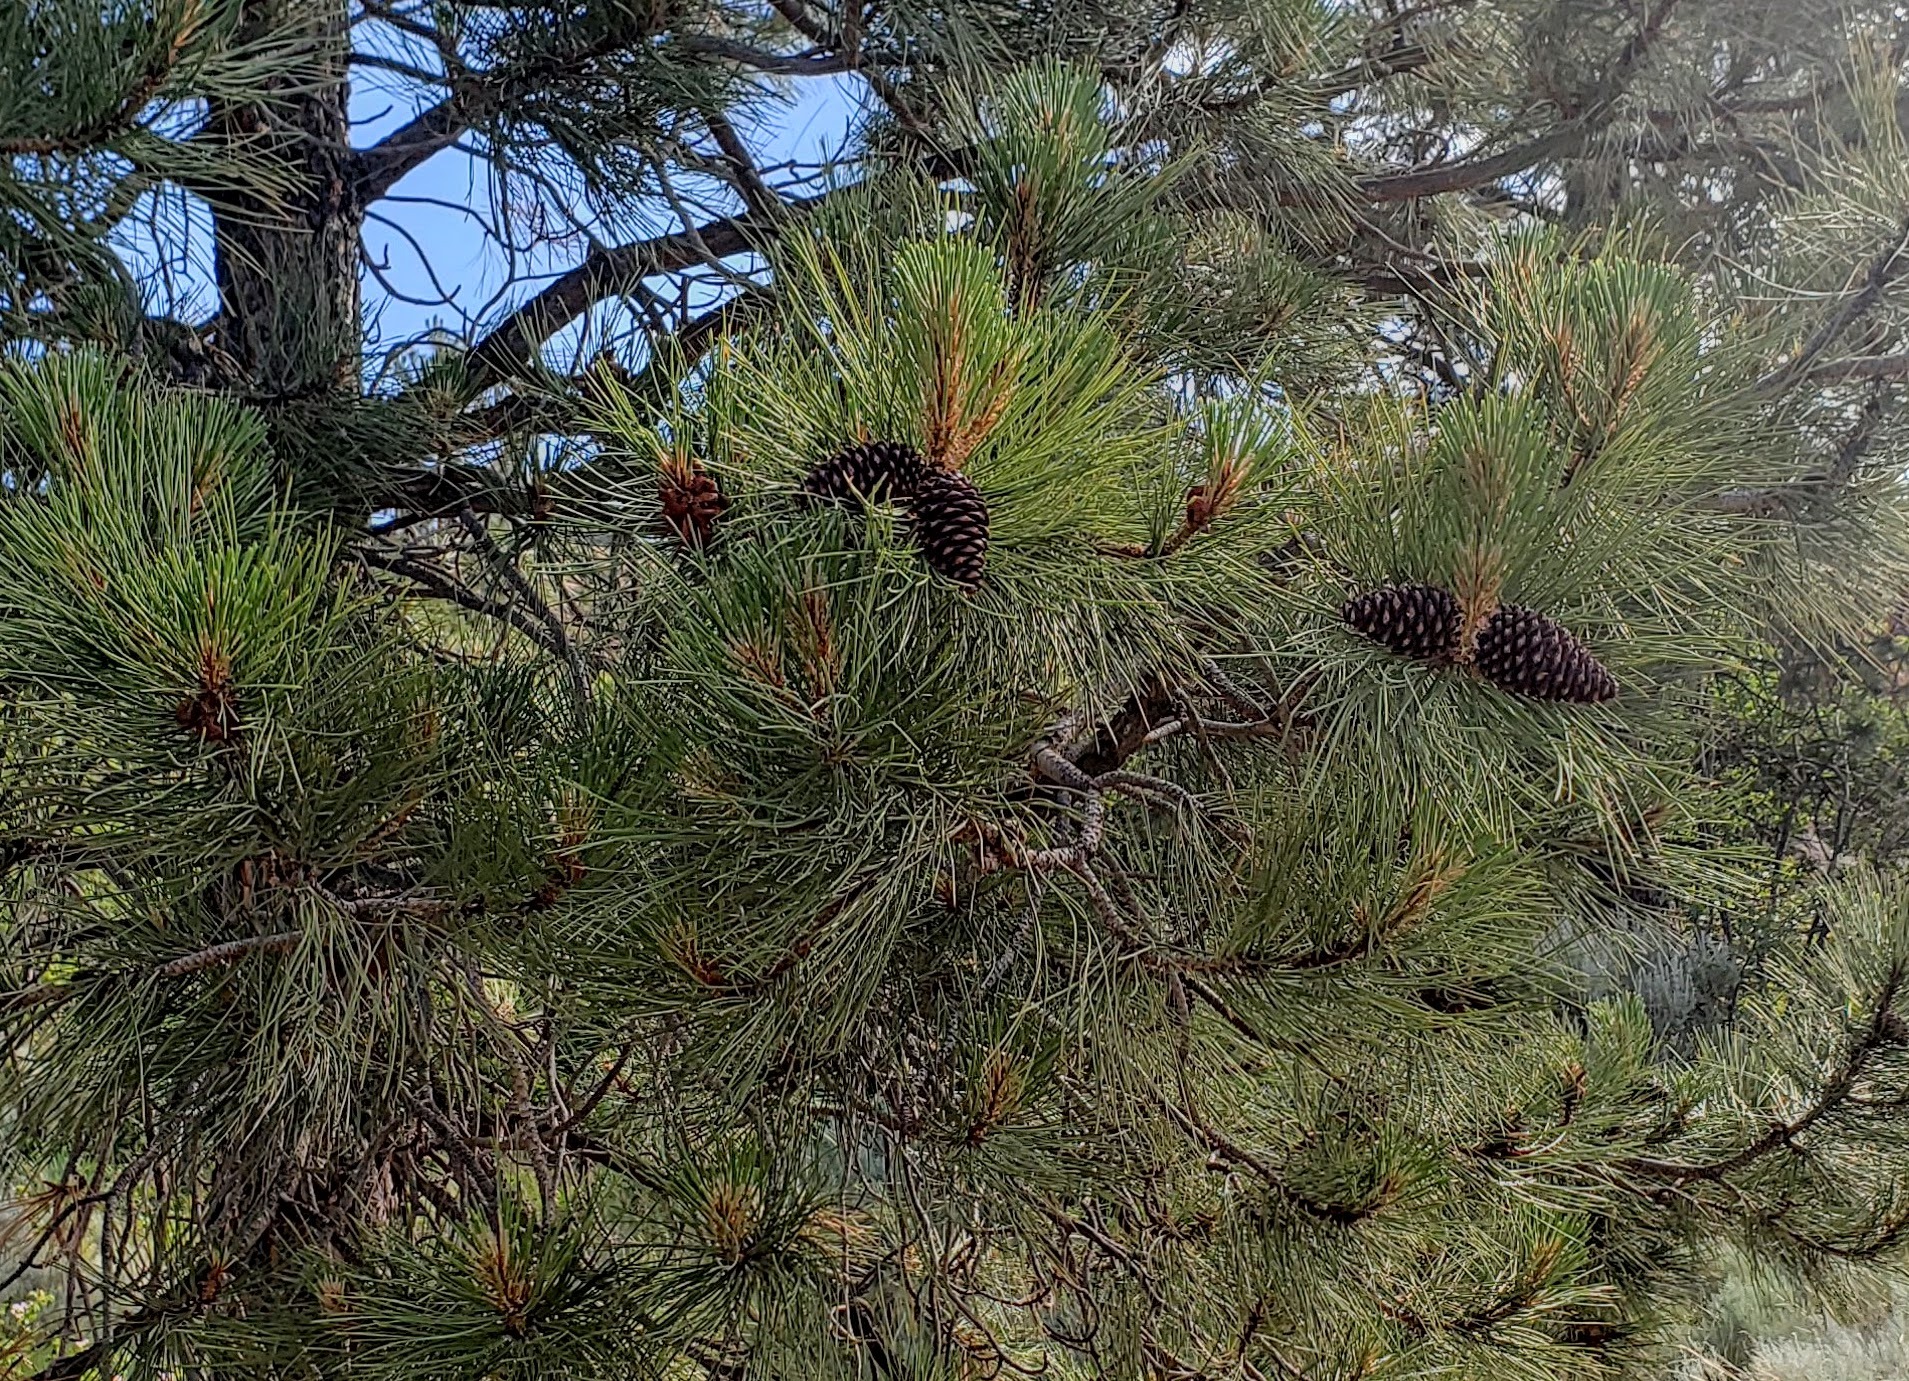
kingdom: Plantae
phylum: Tracheophyta
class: Pinopsida
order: Pinales
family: Pinaceae
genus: Pinus
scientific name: Pinus ponderosa
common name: Western yellow-pine
